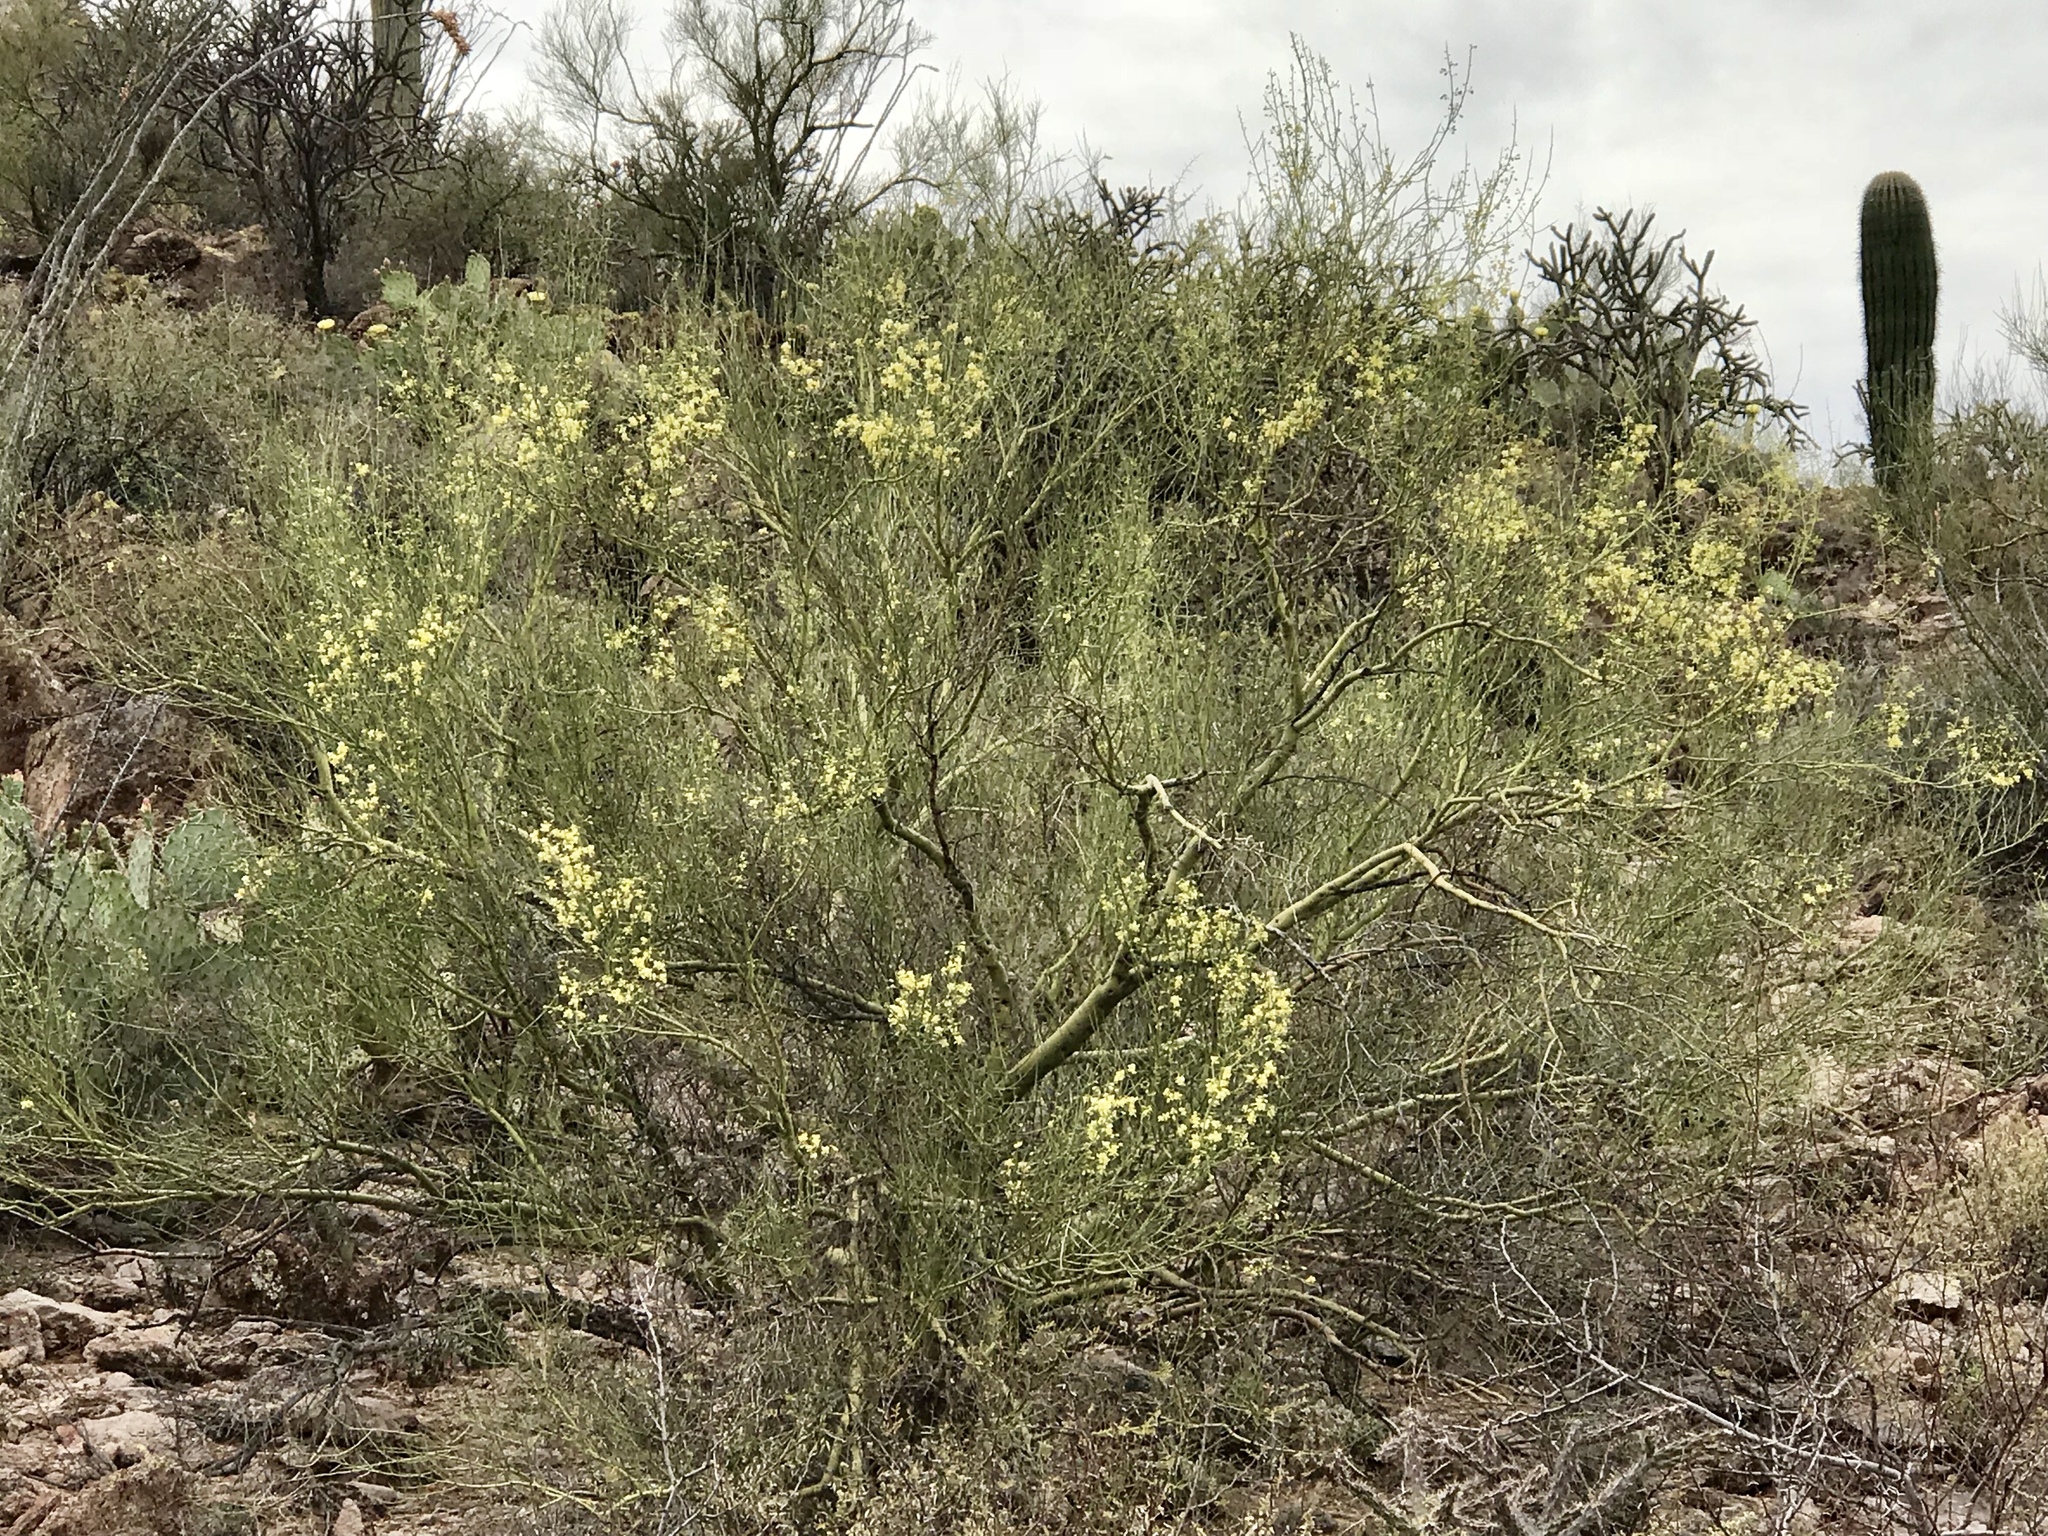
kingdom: Plantae
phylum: Tracheophyta
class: Magnoliopsida
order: Fabales
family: Fabaceae
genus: Parkinsonia
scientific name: Parkinsonia microphylla
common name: Yellow paloverde
